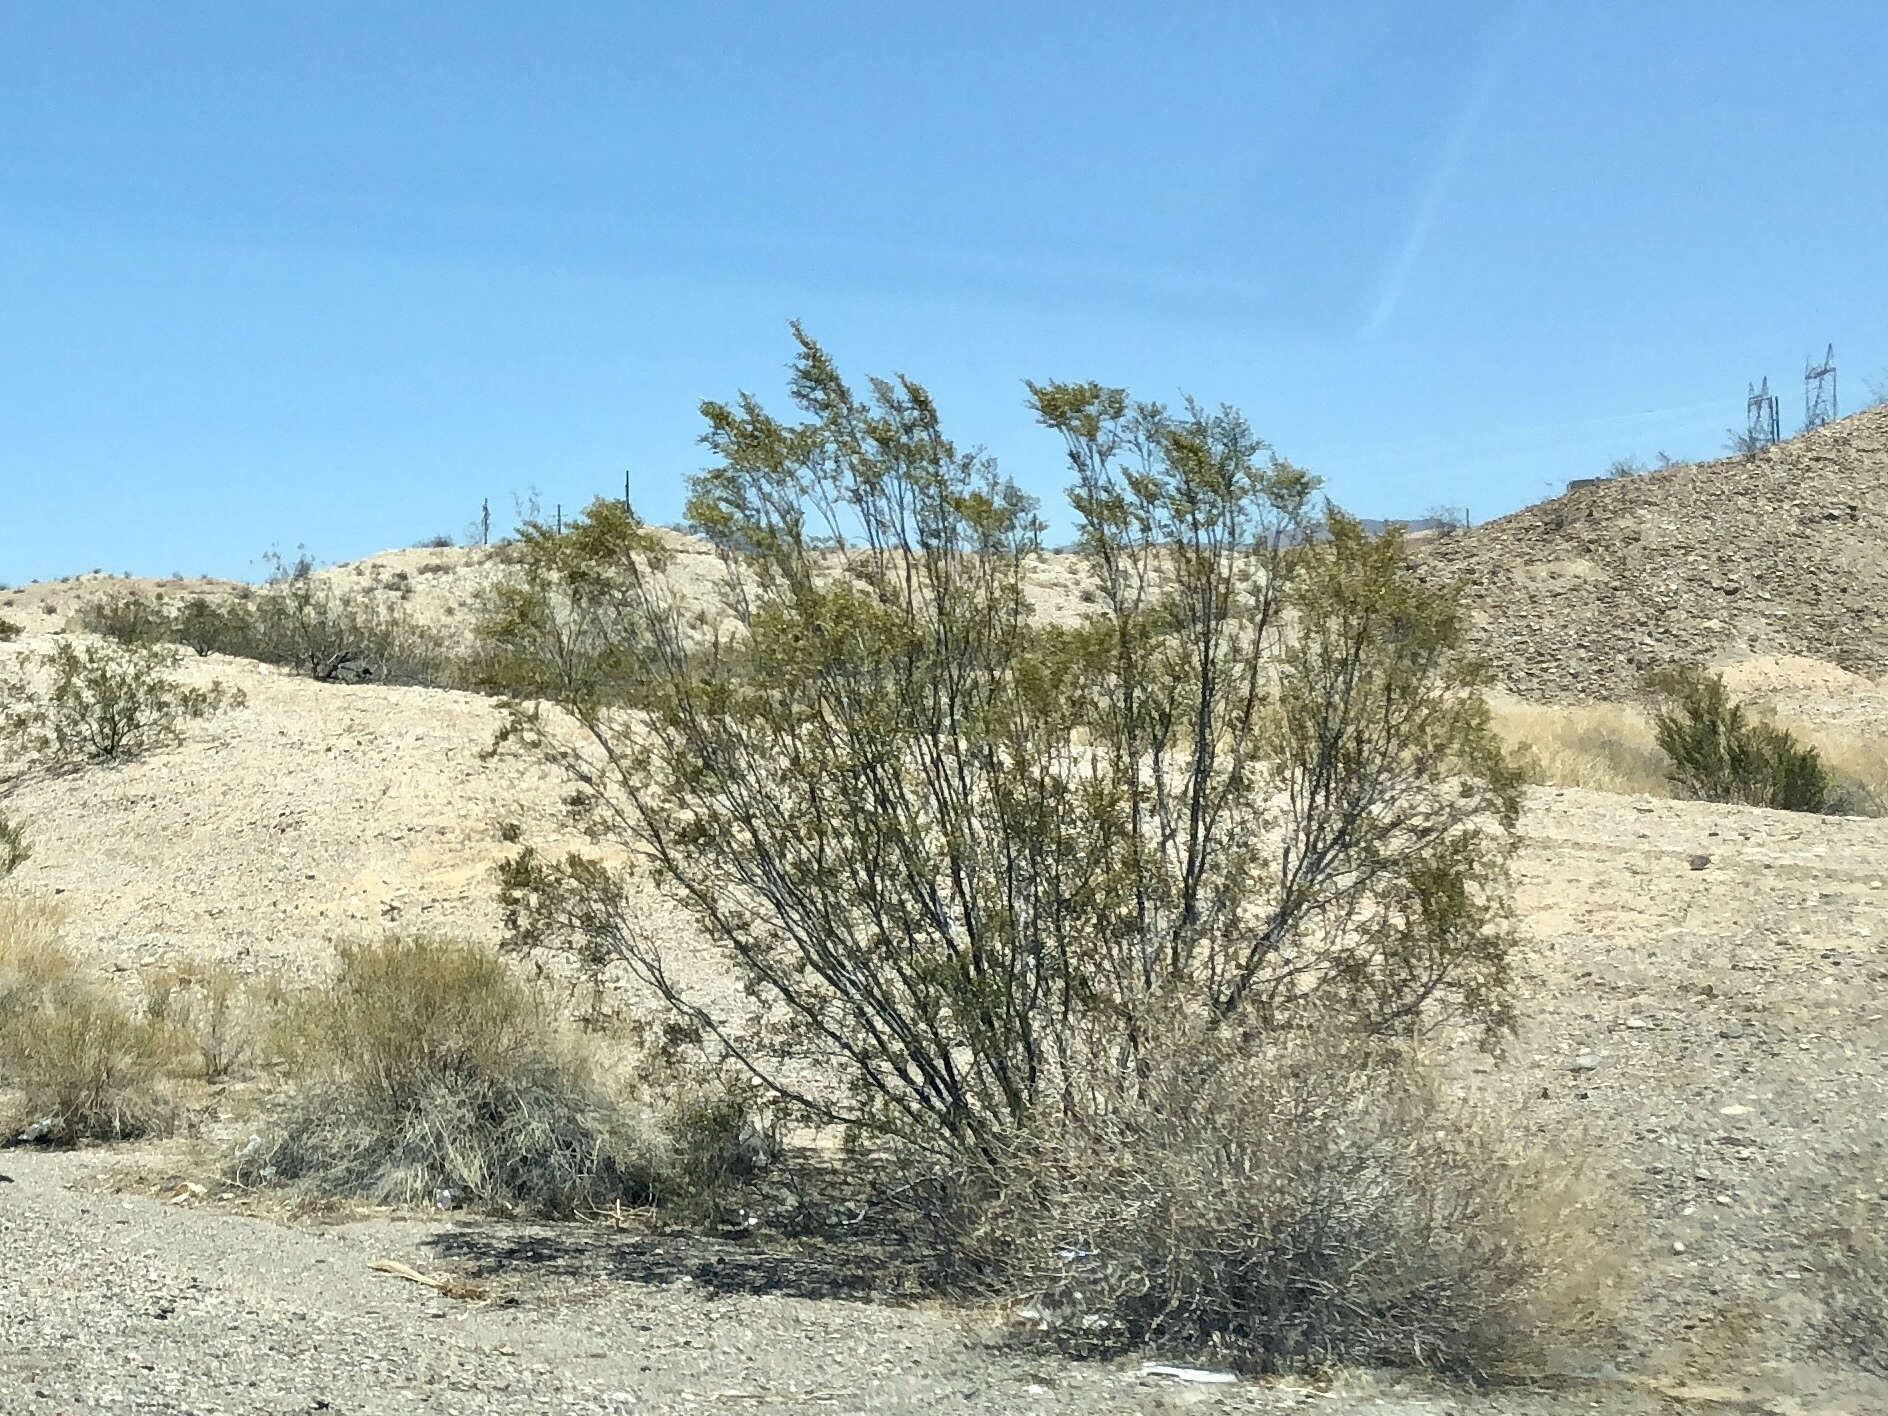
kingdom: Plantae
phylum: Tracheophyta
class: Magnoliopsida
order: Zygophyllales
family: Zygophyllaceae
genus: Larrea
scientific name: Larrea tridentata
